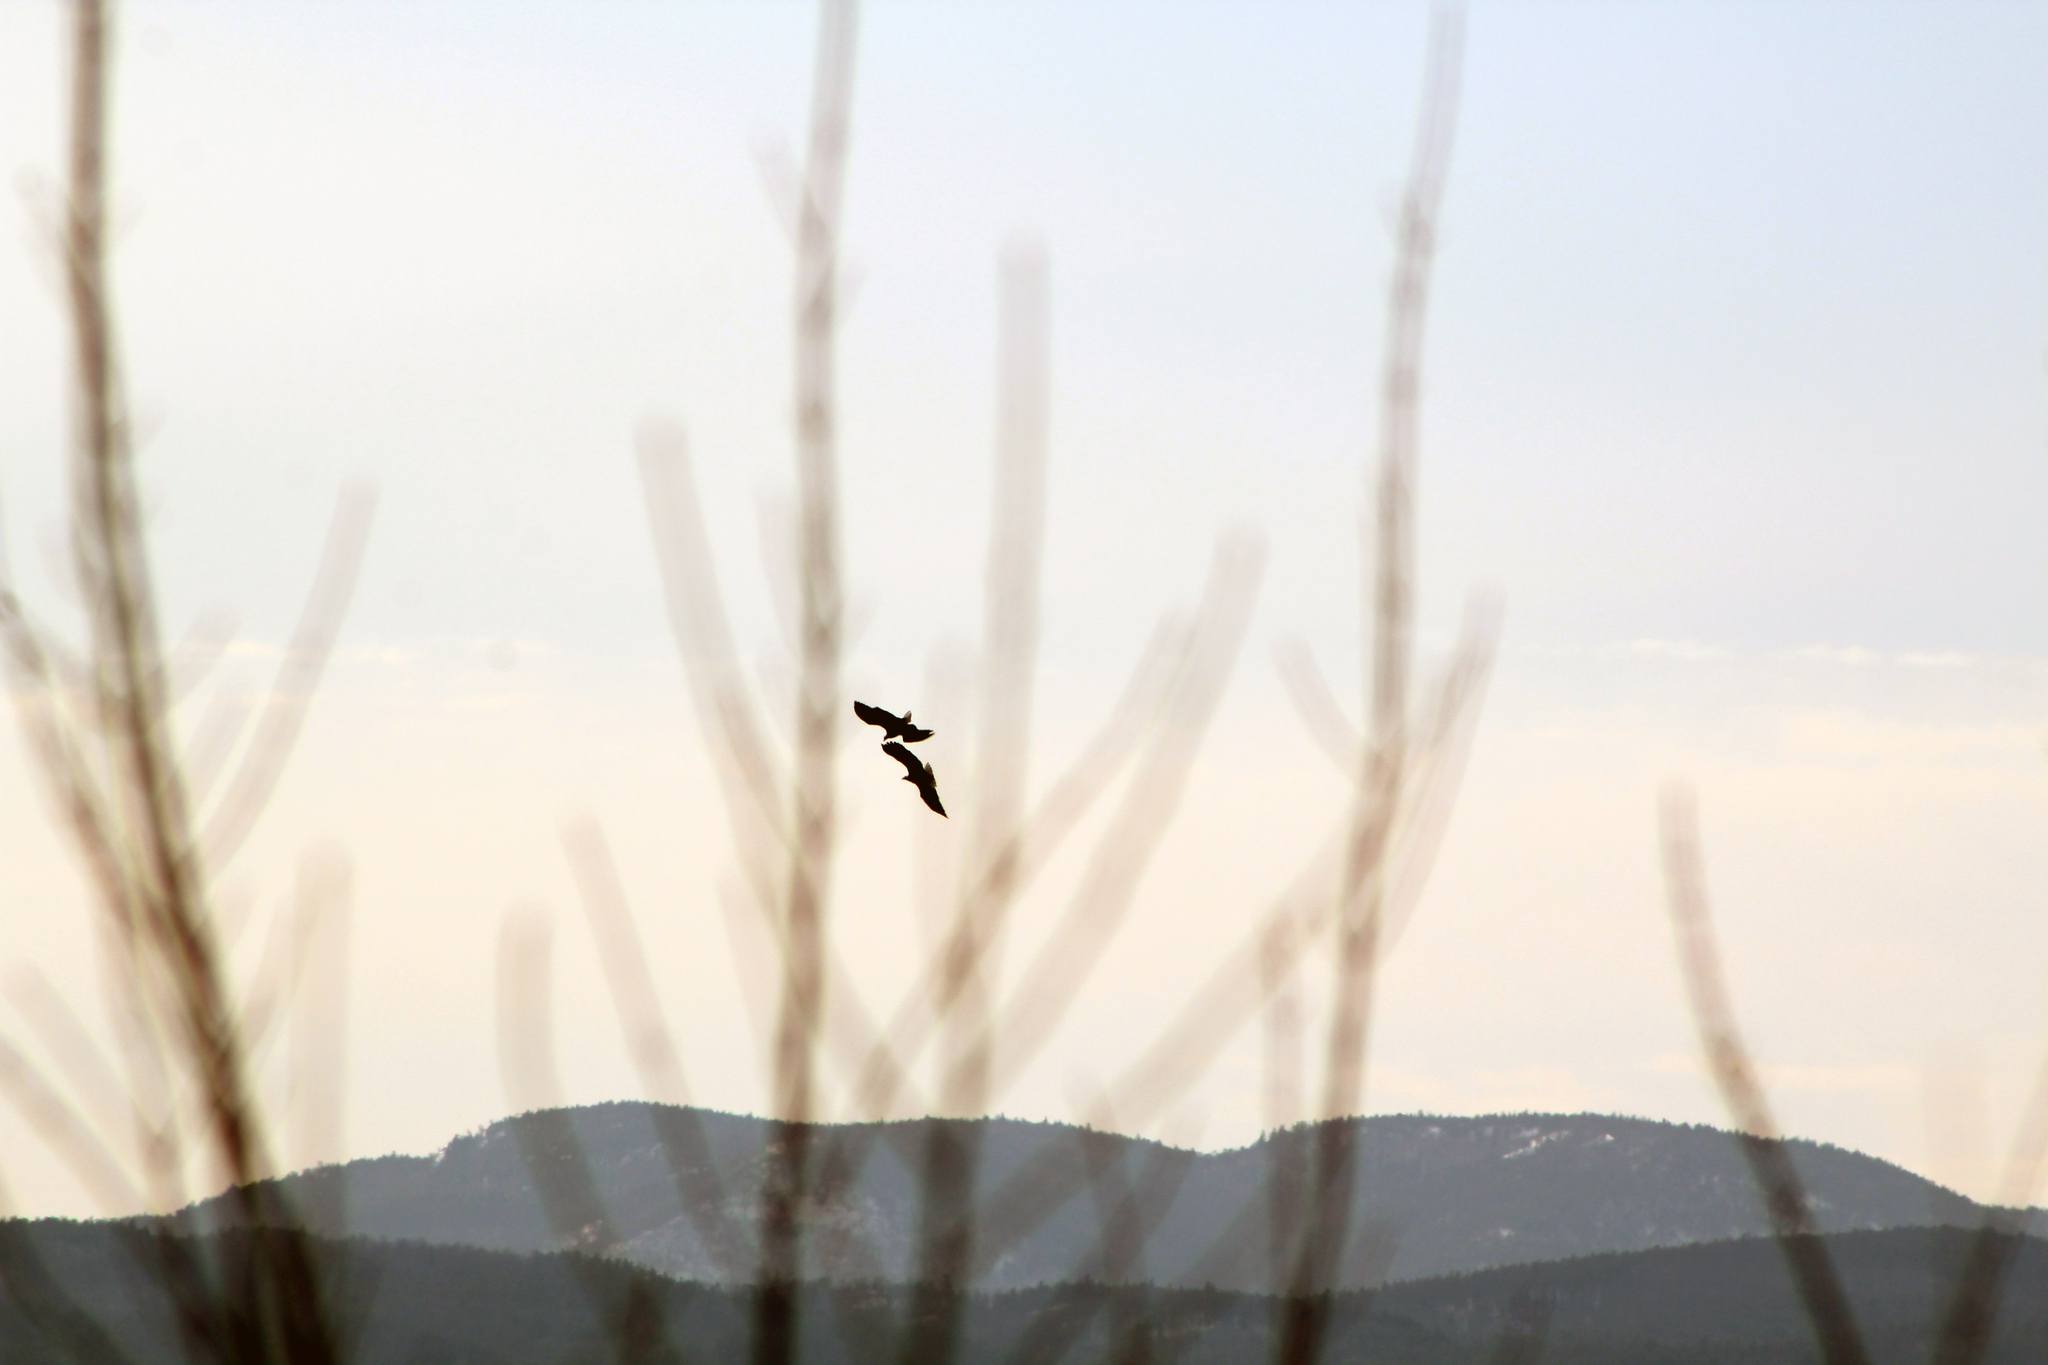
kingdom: Animalia
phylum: Chordata
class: Aves
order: Accipitriformes
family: Accipitridae
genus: Haliaeetus
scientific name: Haliaeetus leucocephalus
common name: Bald eagle
